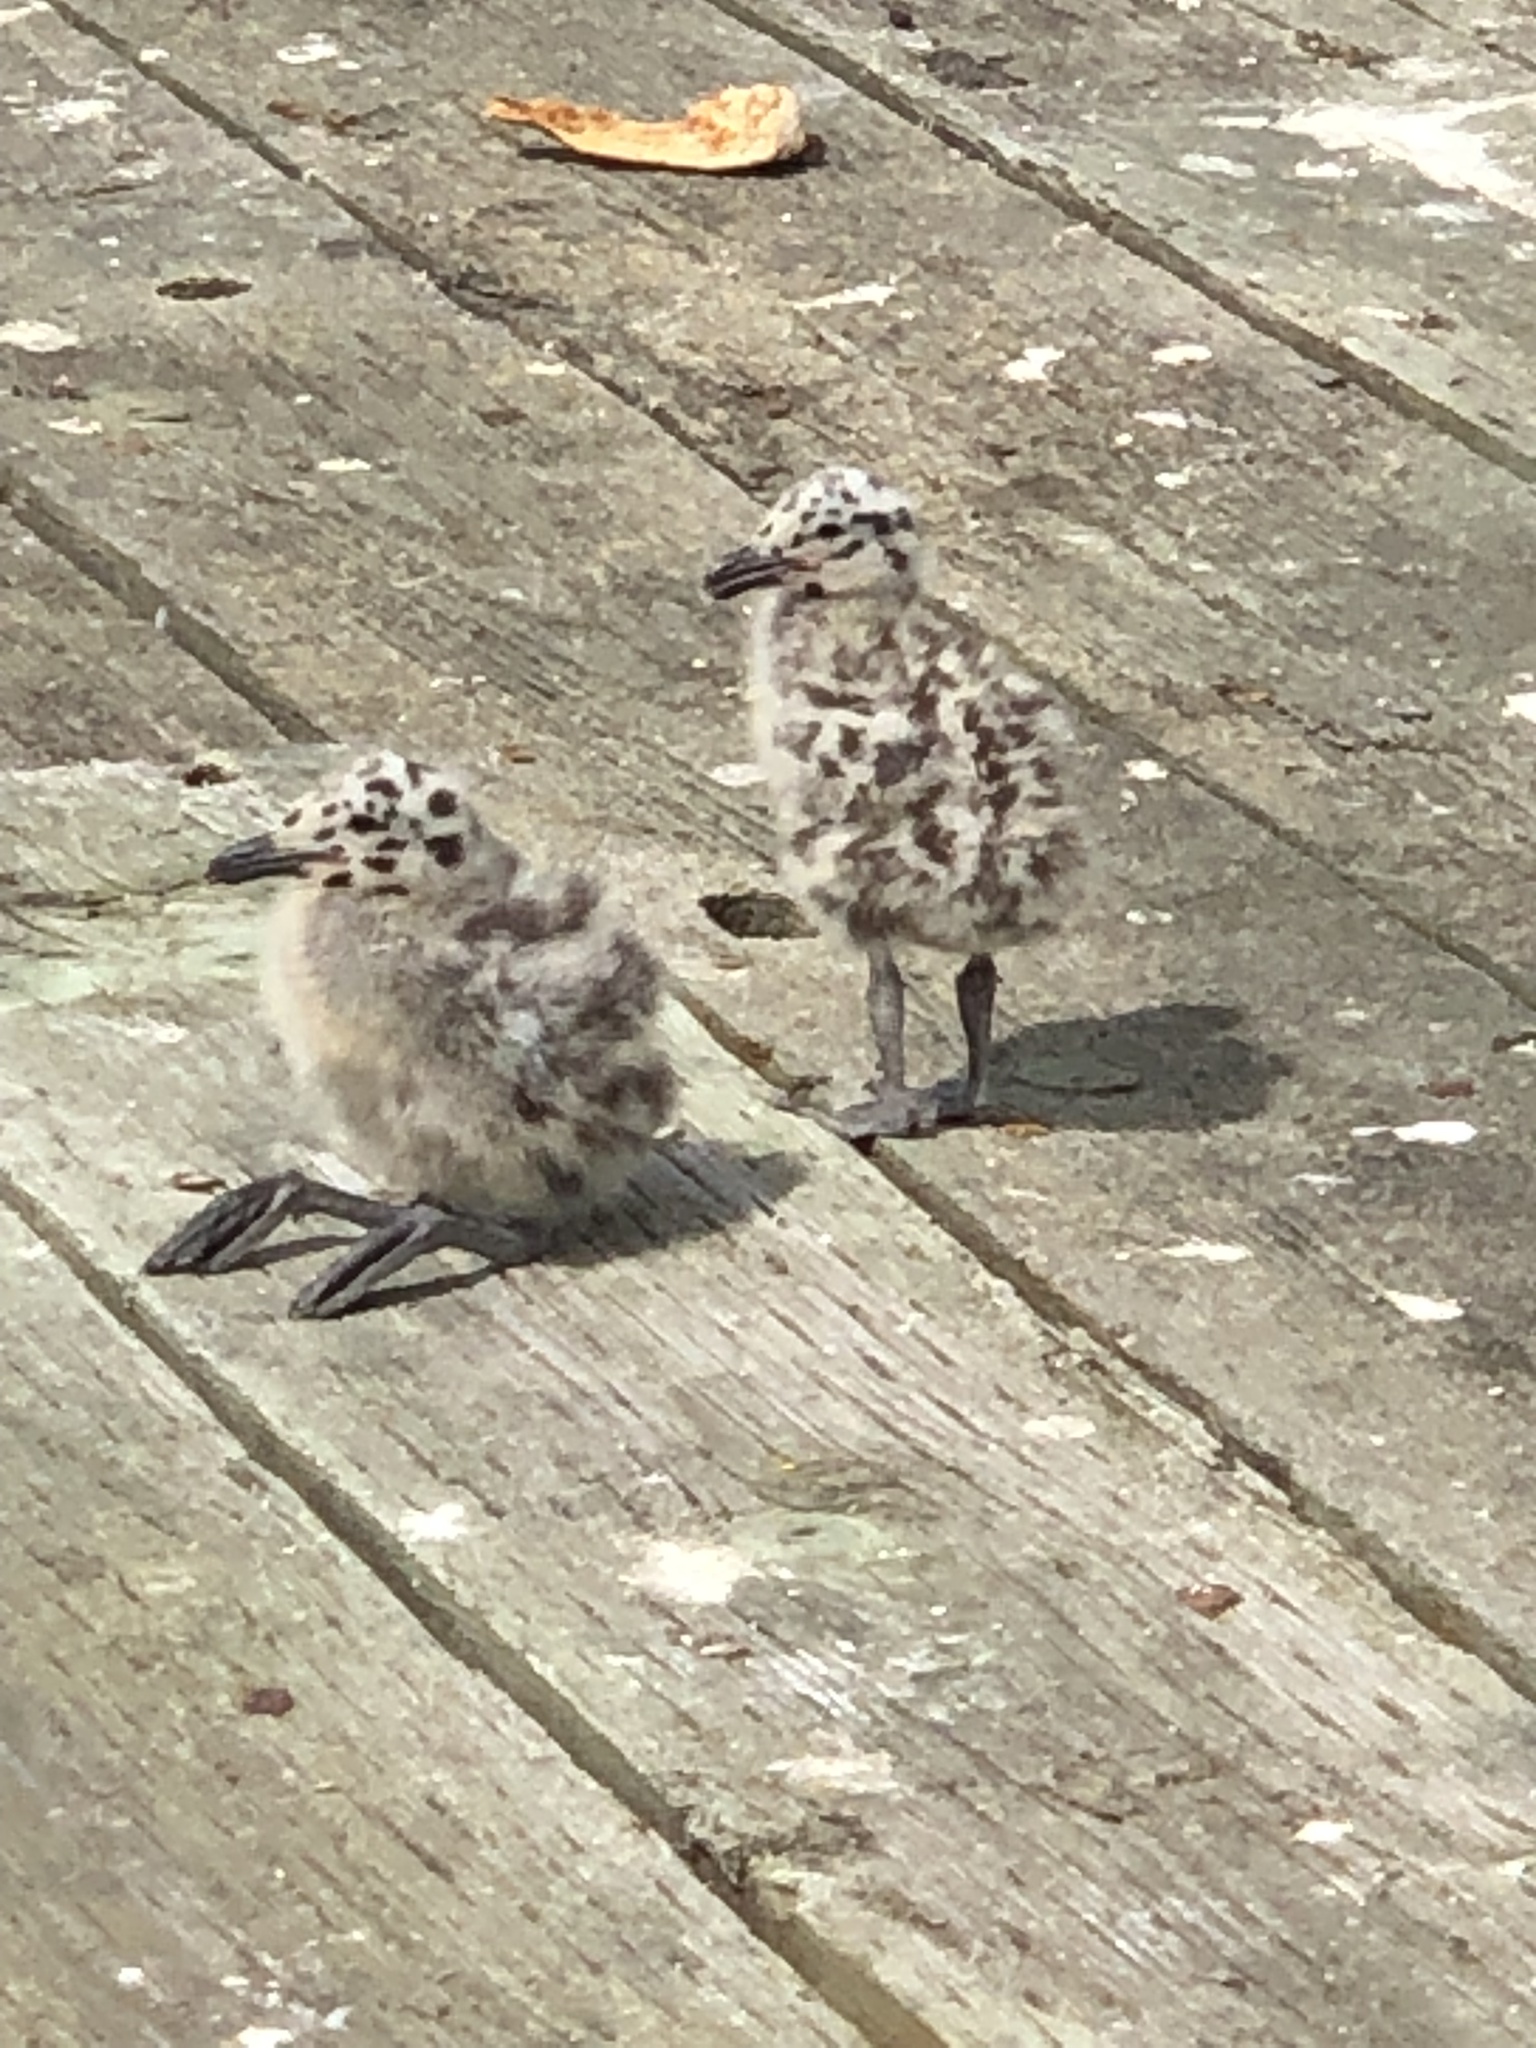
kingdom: Animalia
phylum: Chordata
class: Aves
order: Charadriiformes
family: Laridae
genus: Larus
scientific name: Larus occidentalis
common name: Western gull
